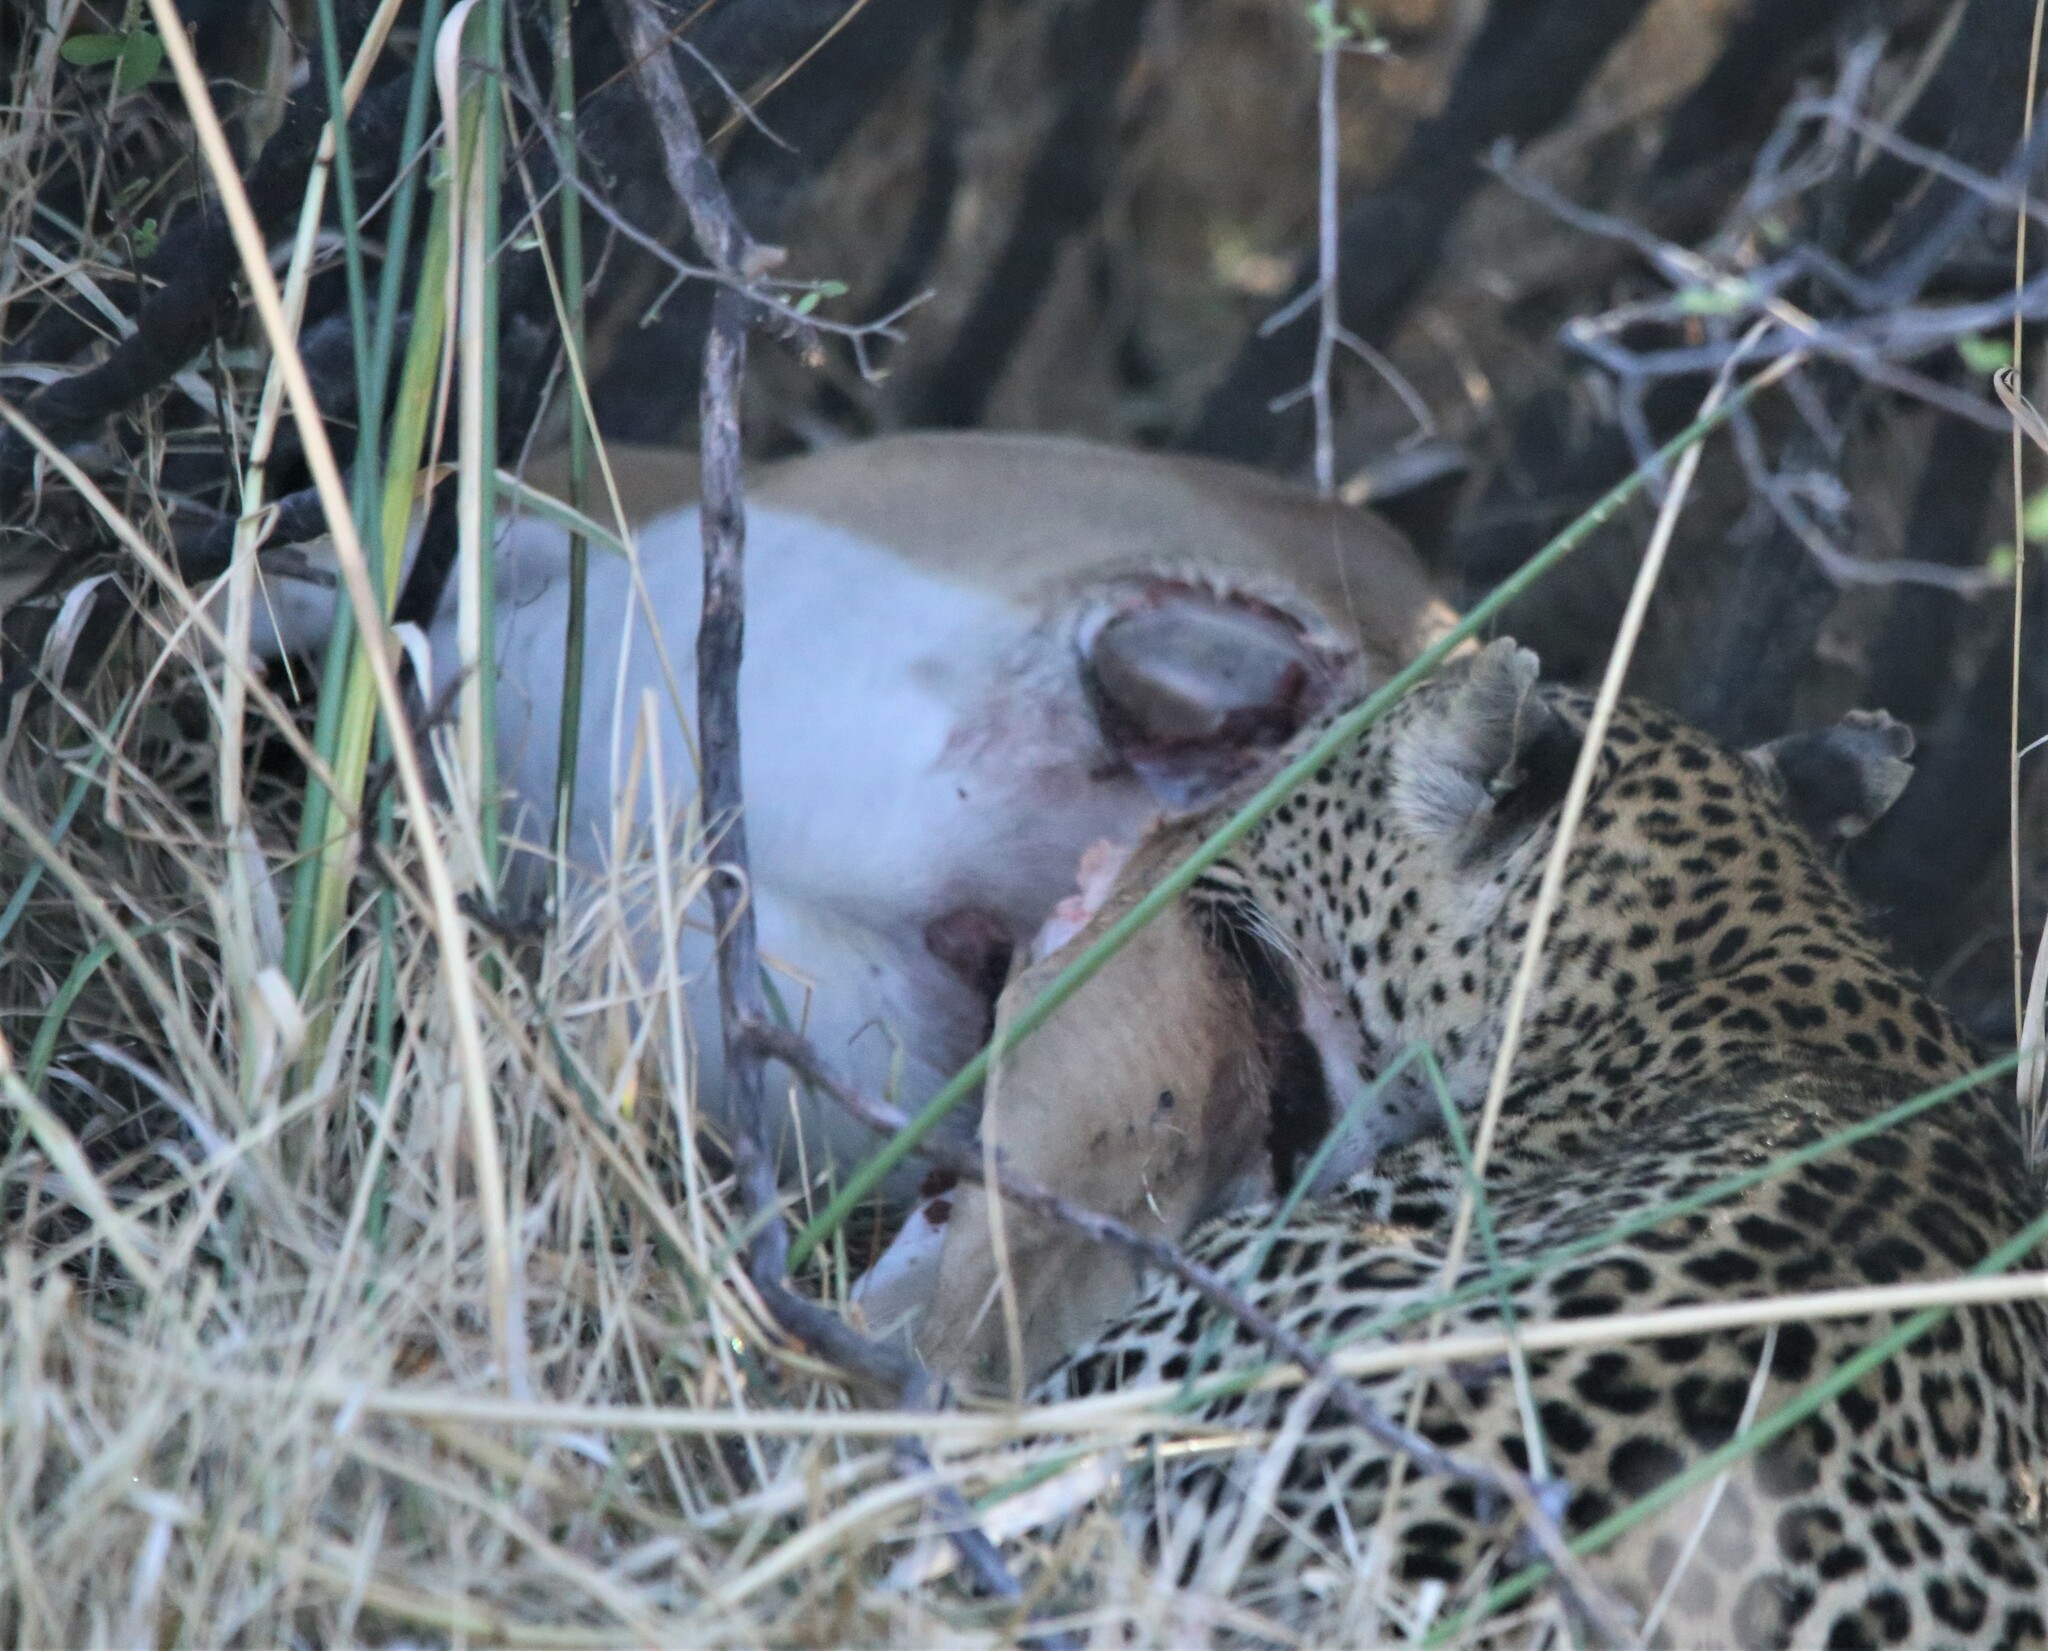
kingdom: Animalia
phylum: Chordata
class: Mammalia
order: Carnivora
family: Felidae
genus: Panthera
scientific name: Panthera pardus
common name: Leopard
